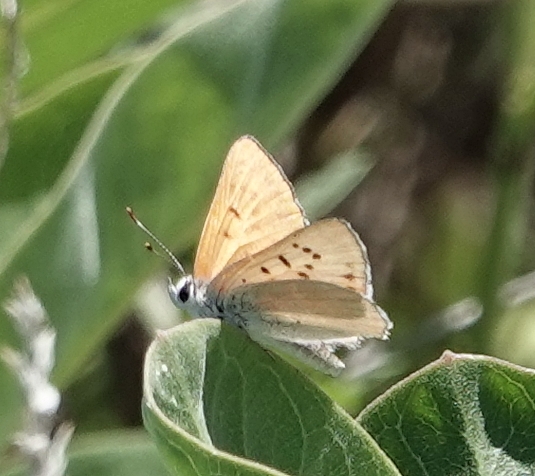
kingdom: Animalia
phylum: Arthropoda
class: Insecta
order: Lepidoptera
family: Lycaenidae
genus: Tharsalea
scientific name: Tharsalea rubidus
